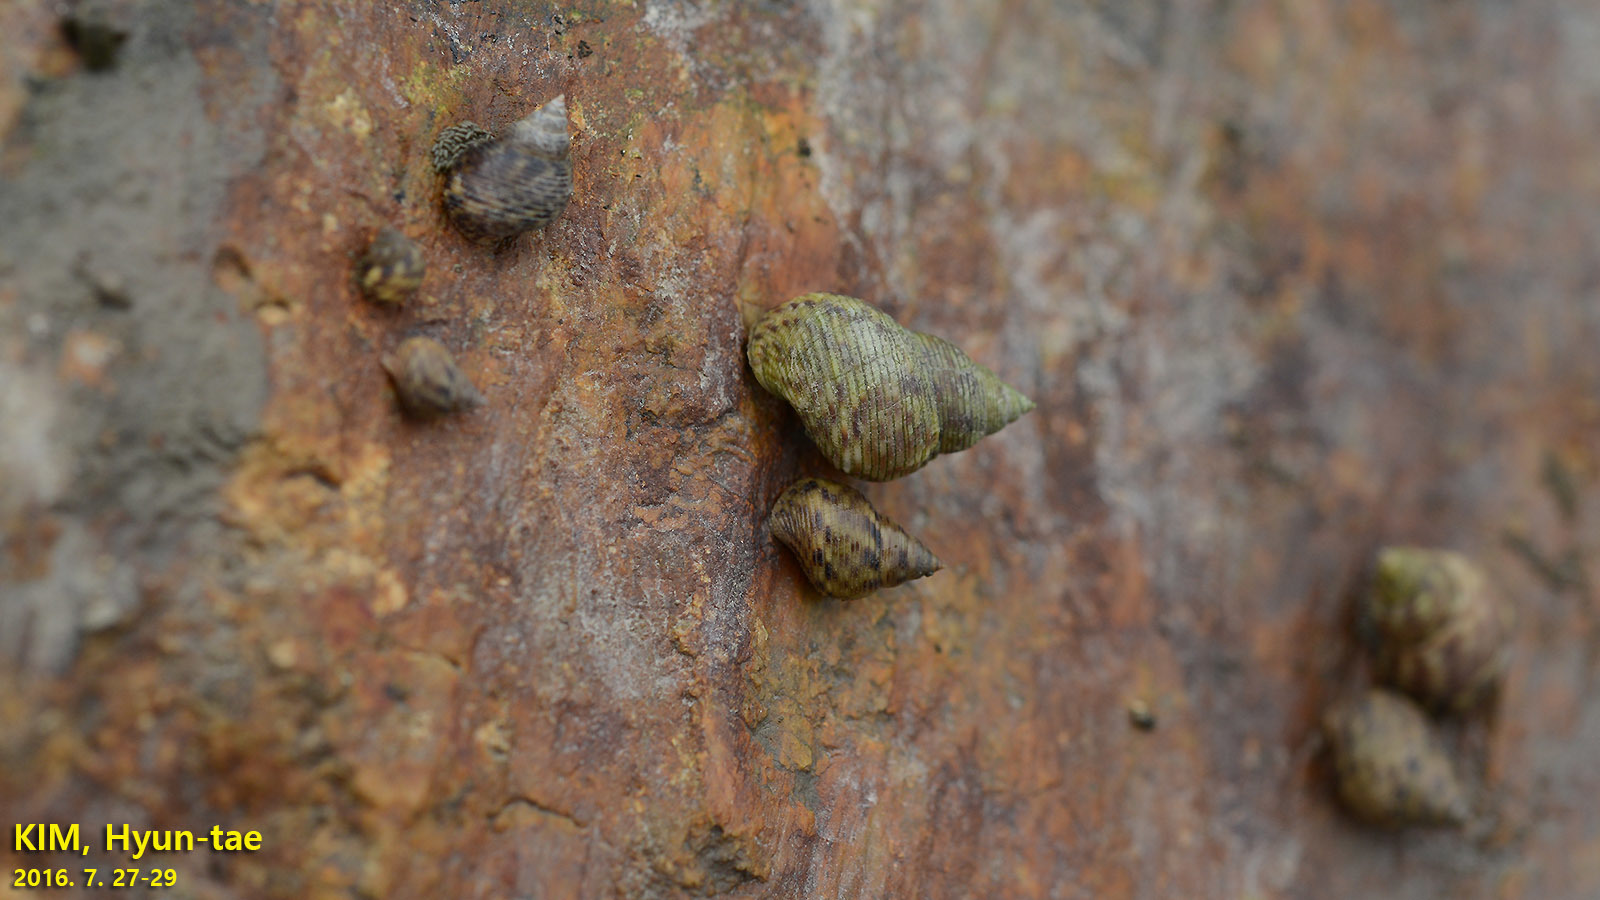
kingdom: Animalia
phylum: Mollusca
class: Gastropoda
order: Littorinimorpha
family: Littorinidae
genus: Littoraria
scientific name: Littoraria intermedia
